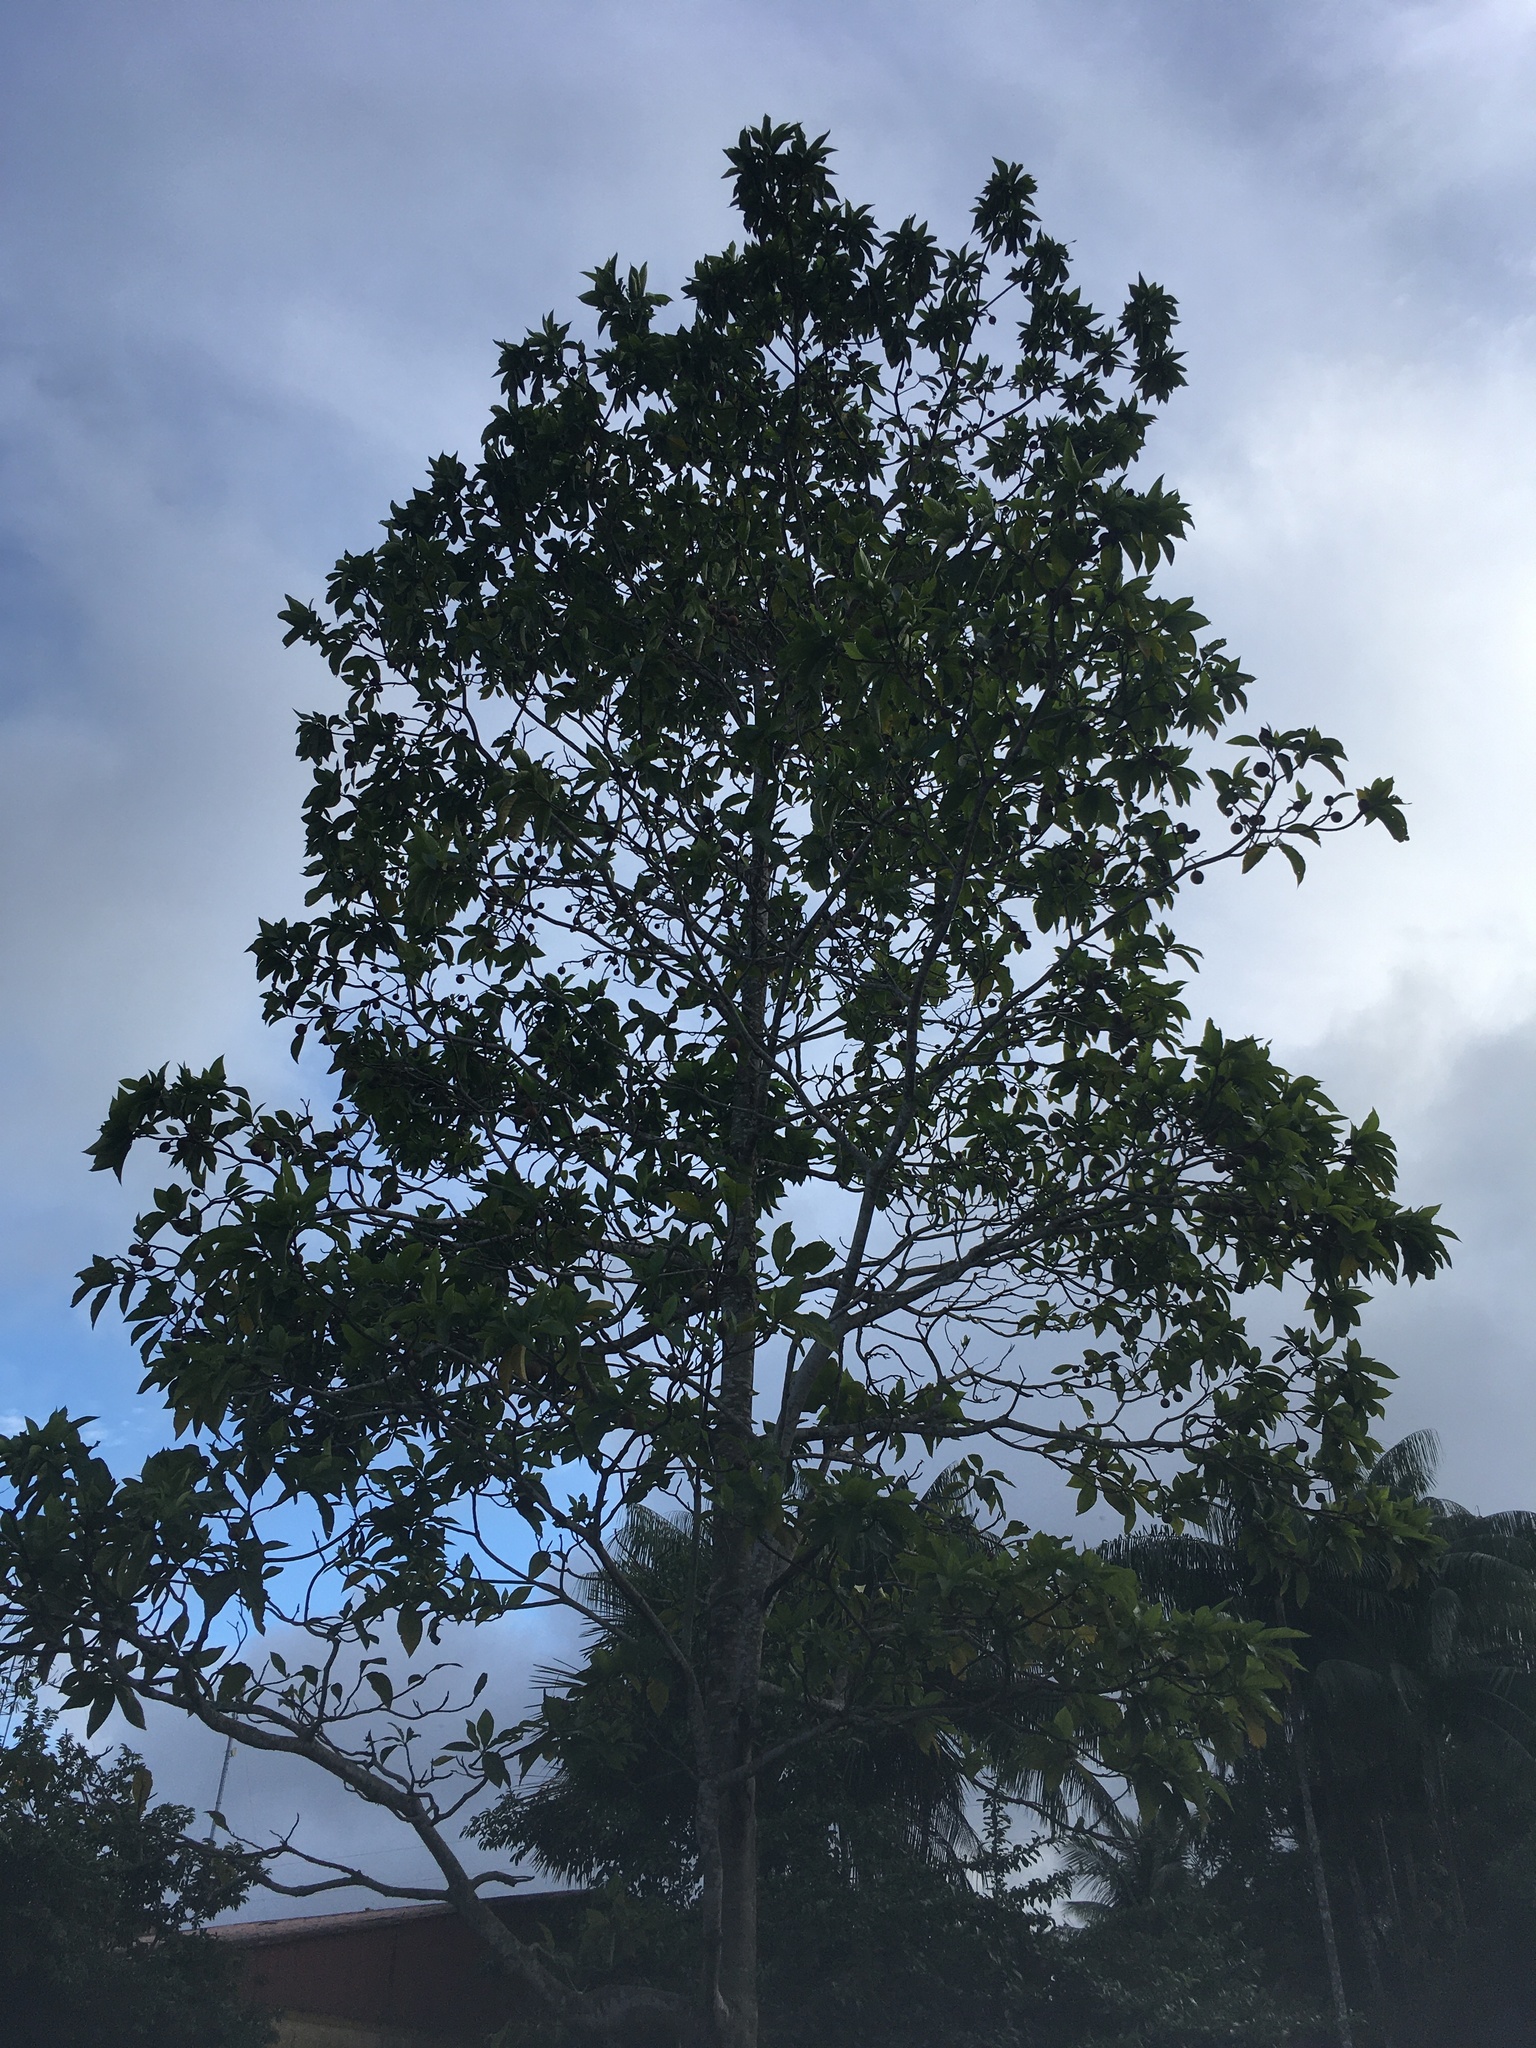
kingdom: Plantae
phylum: Tracheophyta
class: Magnoliopsida
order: Gentianales
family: Rubiaceae
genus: Genipa
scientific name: Genipa americana
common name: Genipap
